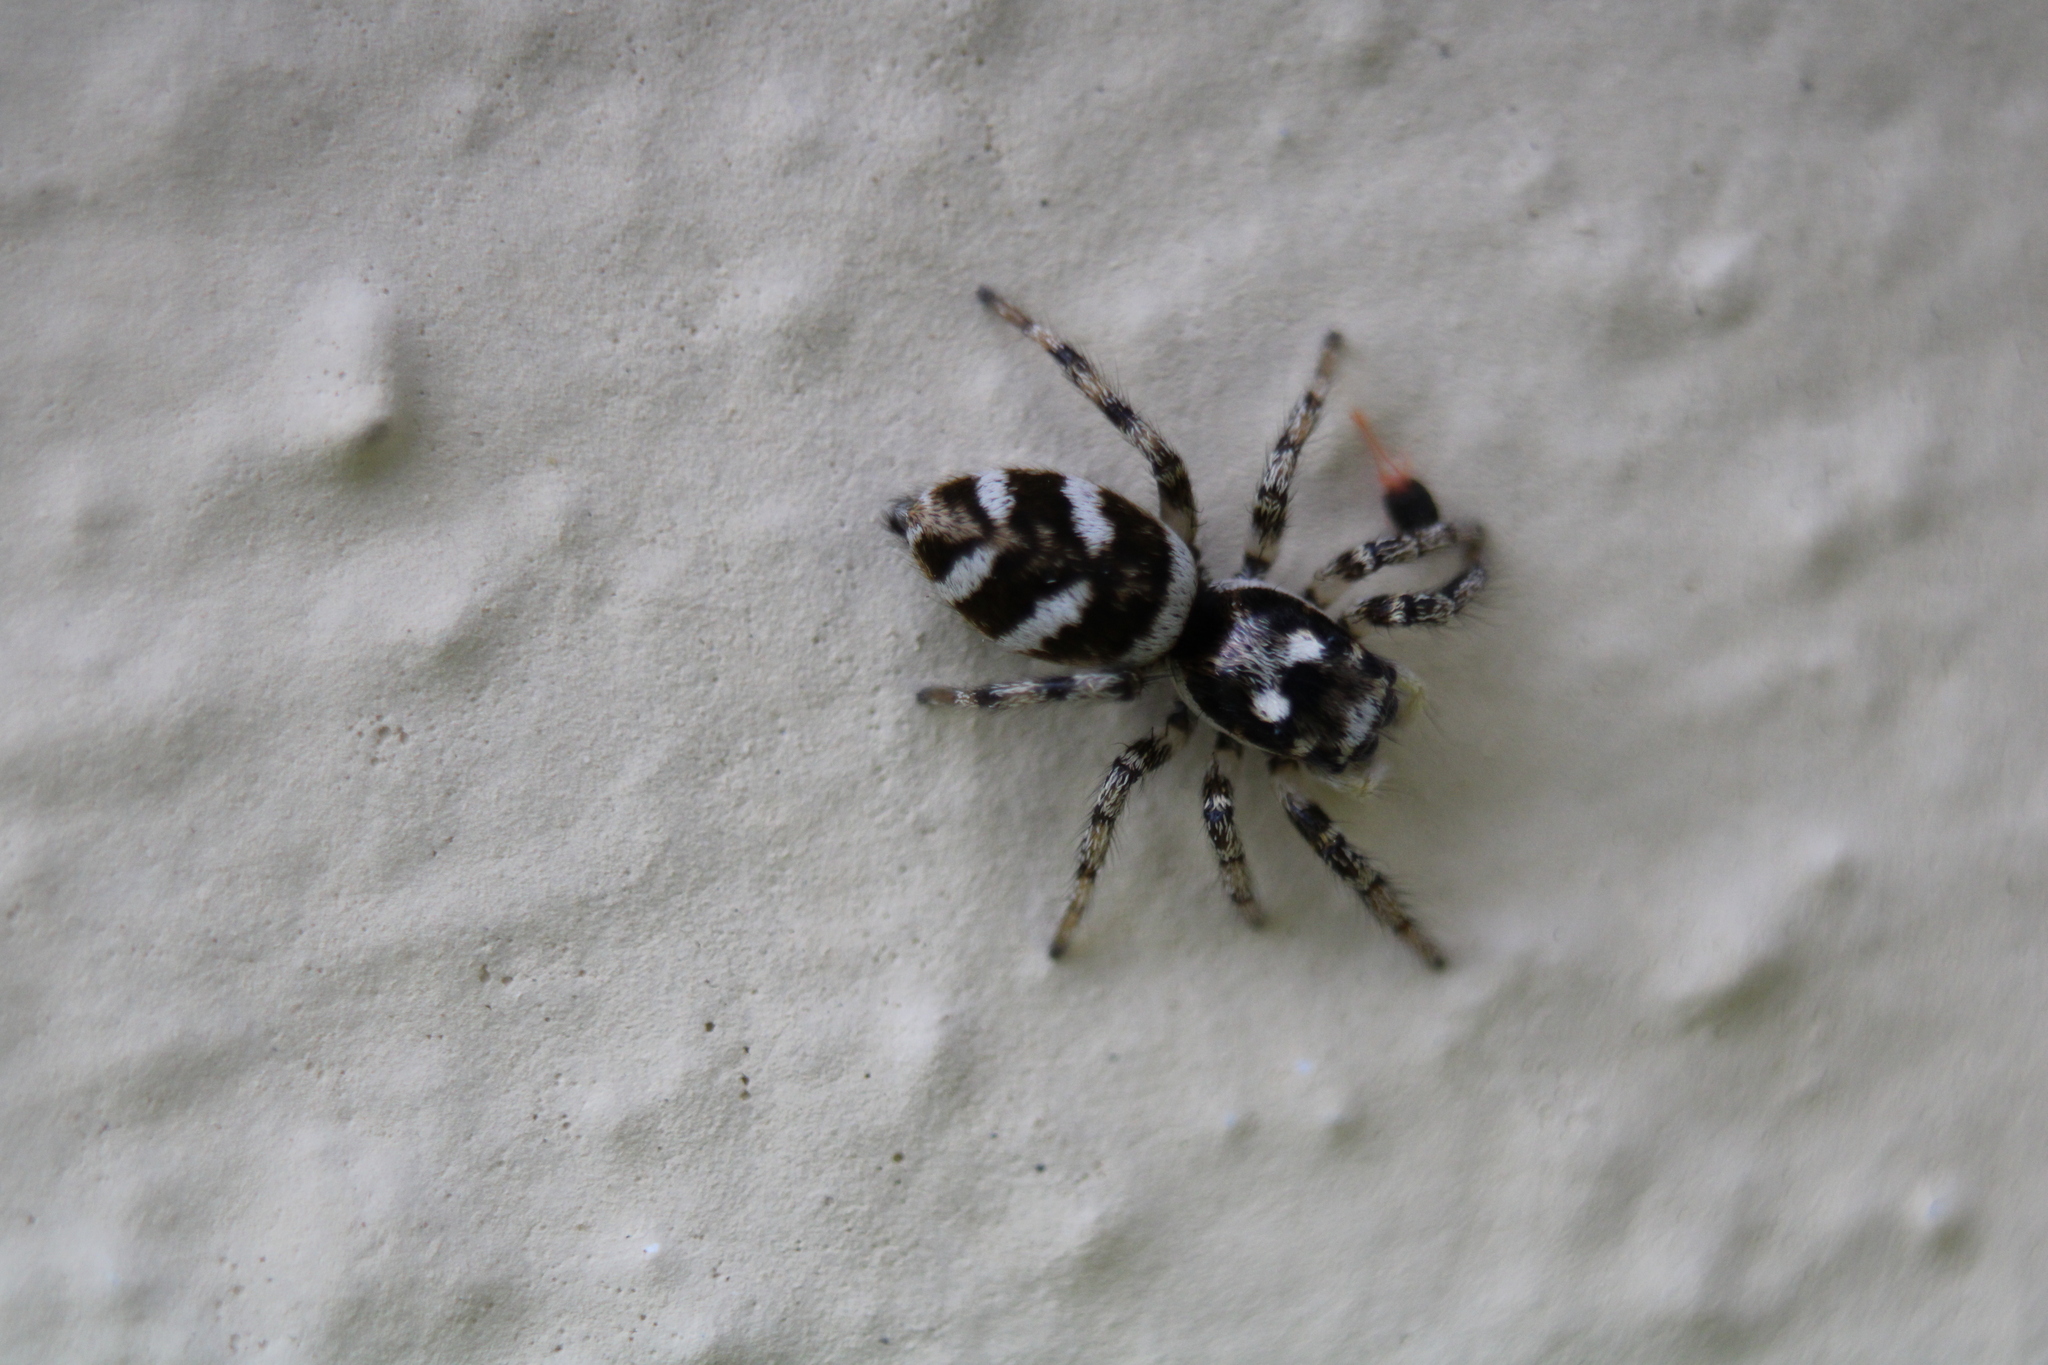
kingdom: Animalia
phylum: Arthropoda
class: Arachnida
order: Araneae
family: Salticidae
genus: Salticus
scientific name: Salticus scenicus
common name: Zebra jumper
